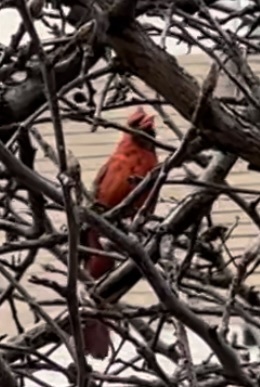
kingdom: Animalia
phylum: Chordata
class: Aves
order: Passeriformes
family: Cardinalidae
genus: Cardinalis
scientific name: Cardinalis cardinalis
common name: Northern cardinal
